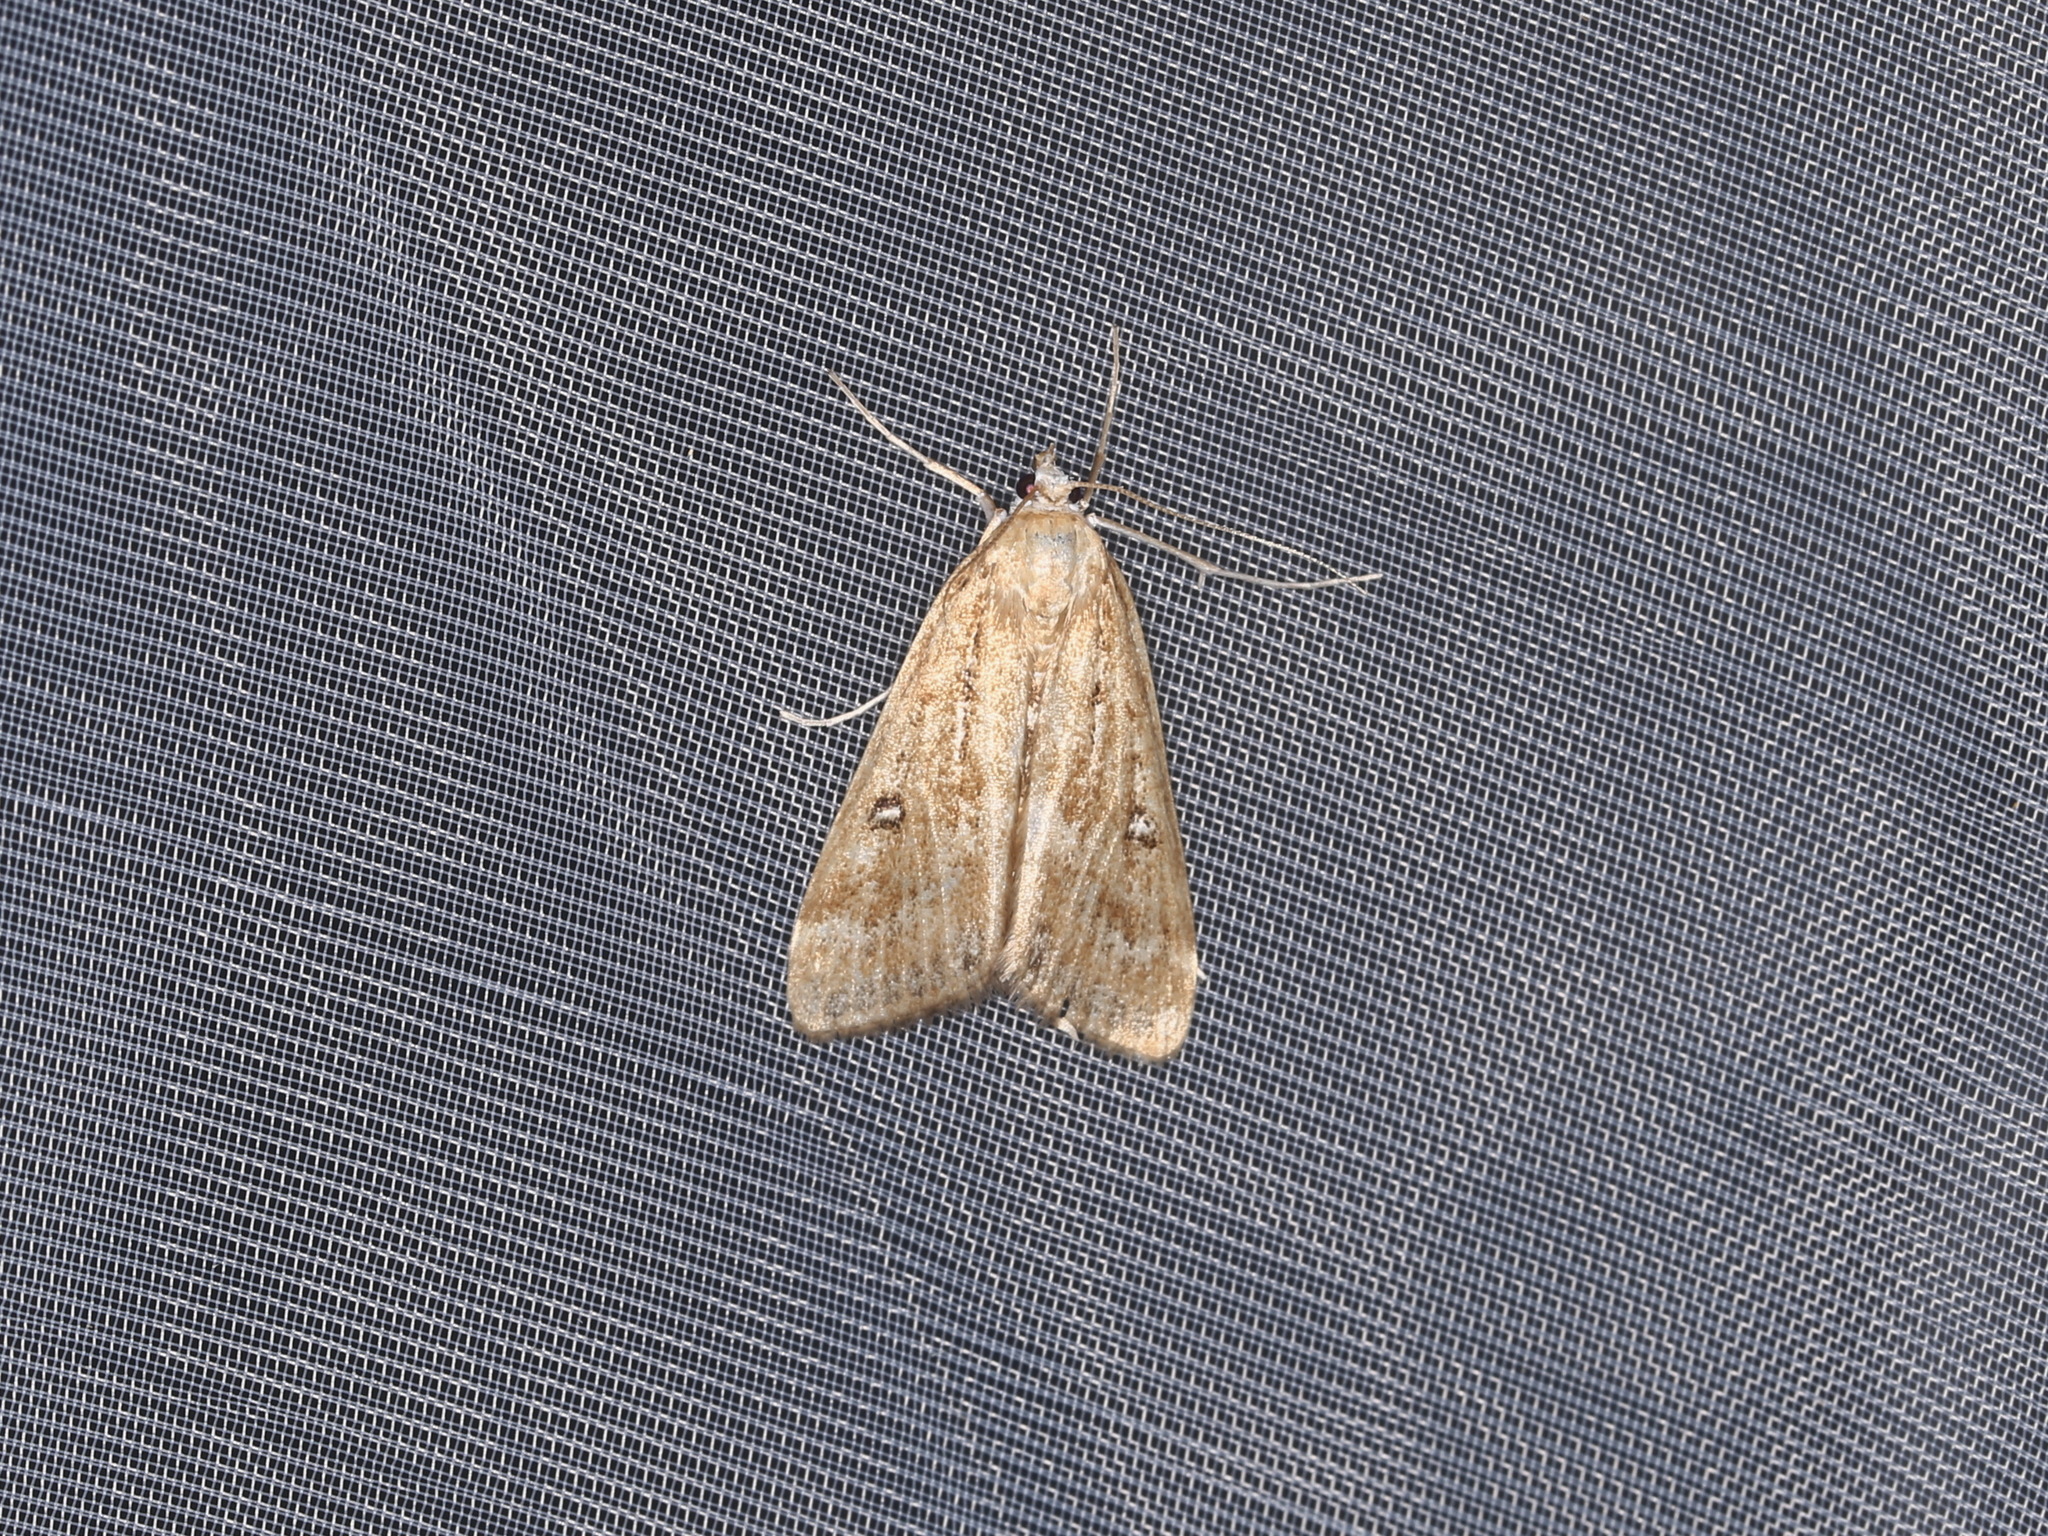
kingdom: Animalia
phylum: Arthropoda
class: Insecta
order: Lepidoptera
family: Crambidae
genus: Parapoynx
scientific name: Parapoynx stratiotata
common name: Ringed china-mark
